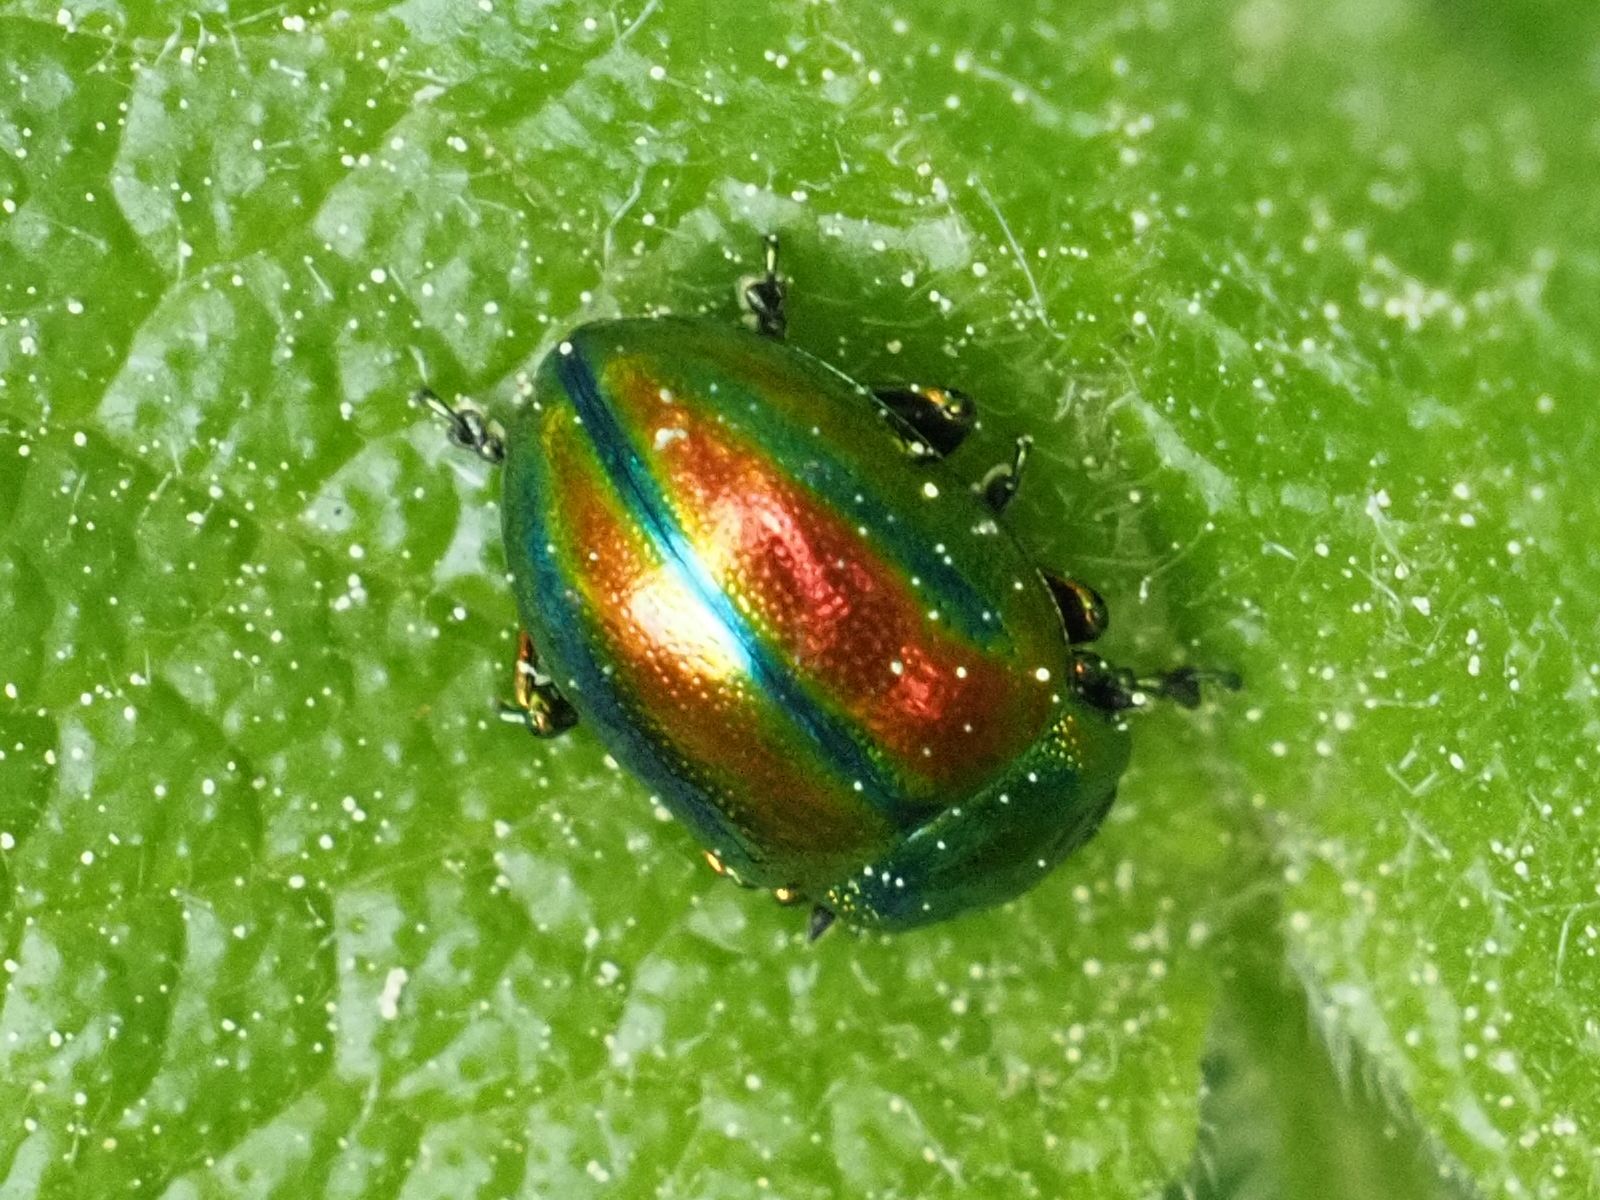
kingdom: Animalia
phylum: Arthropoda
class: Insecta
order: Coleoptera
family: Chrysomelidae
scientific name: Chrysomelidae
